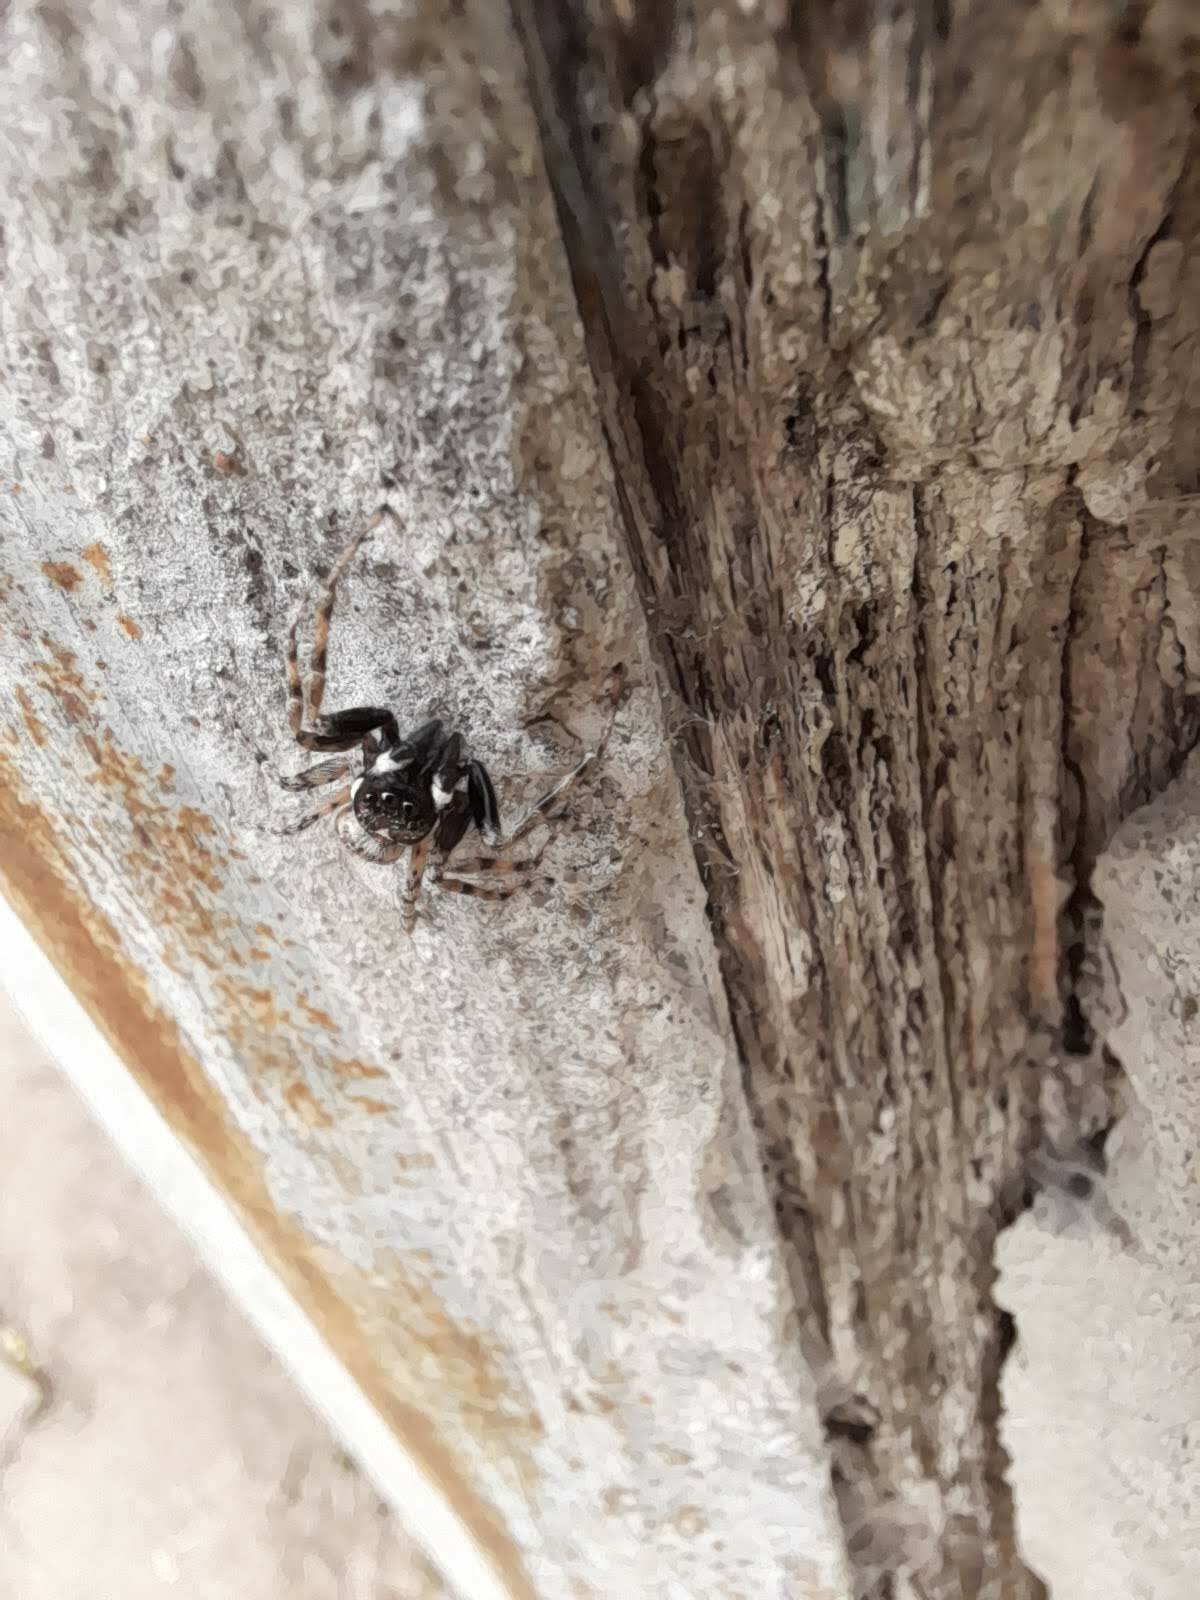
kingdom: Animalia
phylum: Arthropoda
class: Arachnida
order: Araneae
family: Salticidae
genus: Menemerus
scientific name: Menemerus semilimbatus
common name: Jumping spider
